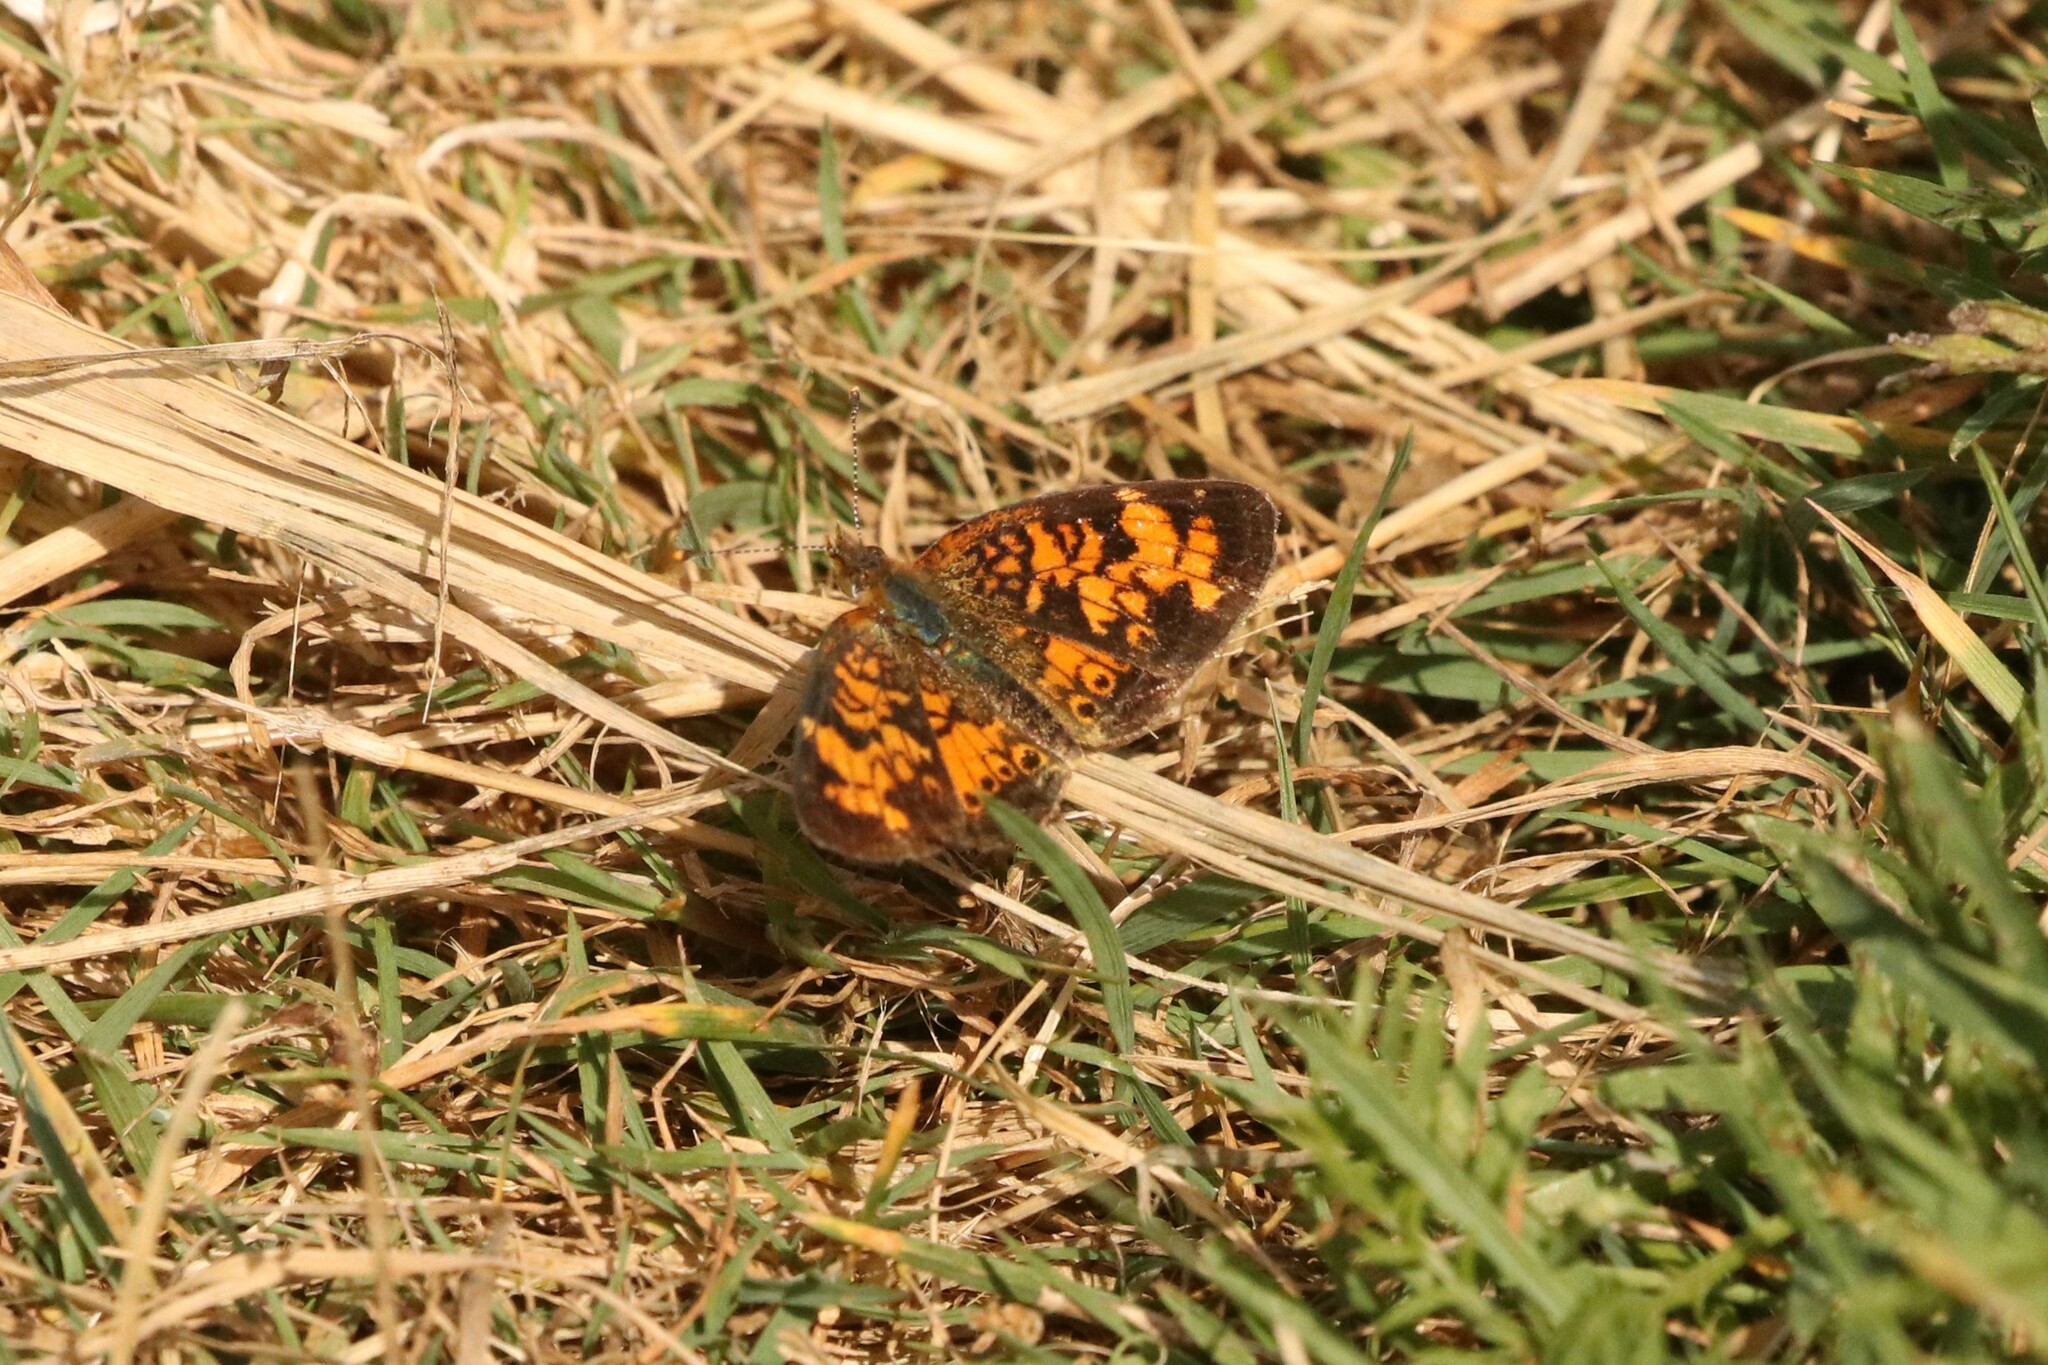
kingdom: Animalia
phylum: Arthropoda
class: Insecta
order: Lepidoptera
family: Nymphalidae
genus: Phyciodes
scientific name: Phyciodes tharos
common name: Pearl crescent
